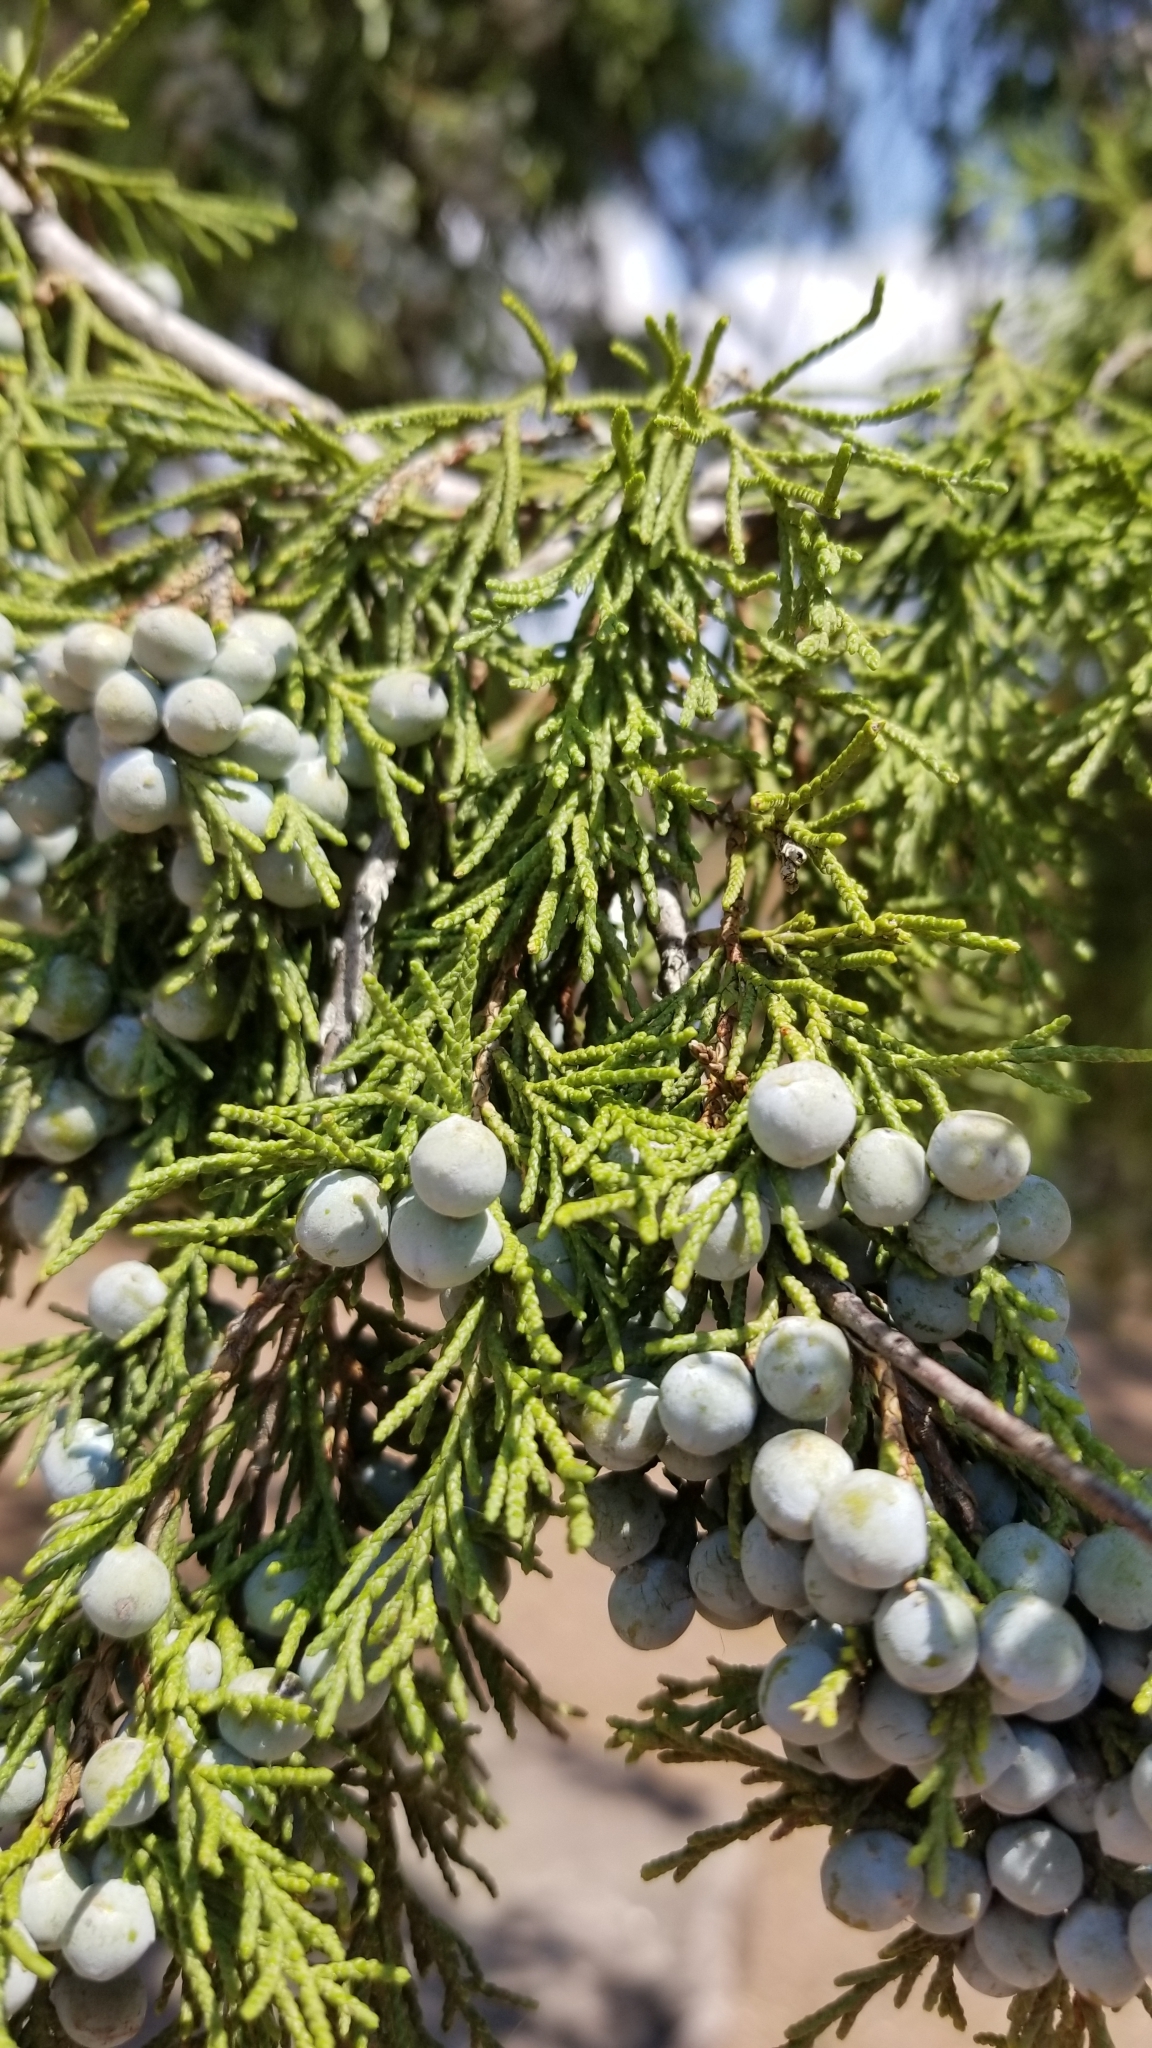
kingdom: Plantae
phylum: Tracheophyta
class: Pinopsida
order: Pinales
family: Cupressaceae
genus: Juniperus
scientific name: Juniperus scopulorum
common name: Rocky mountain juniper
